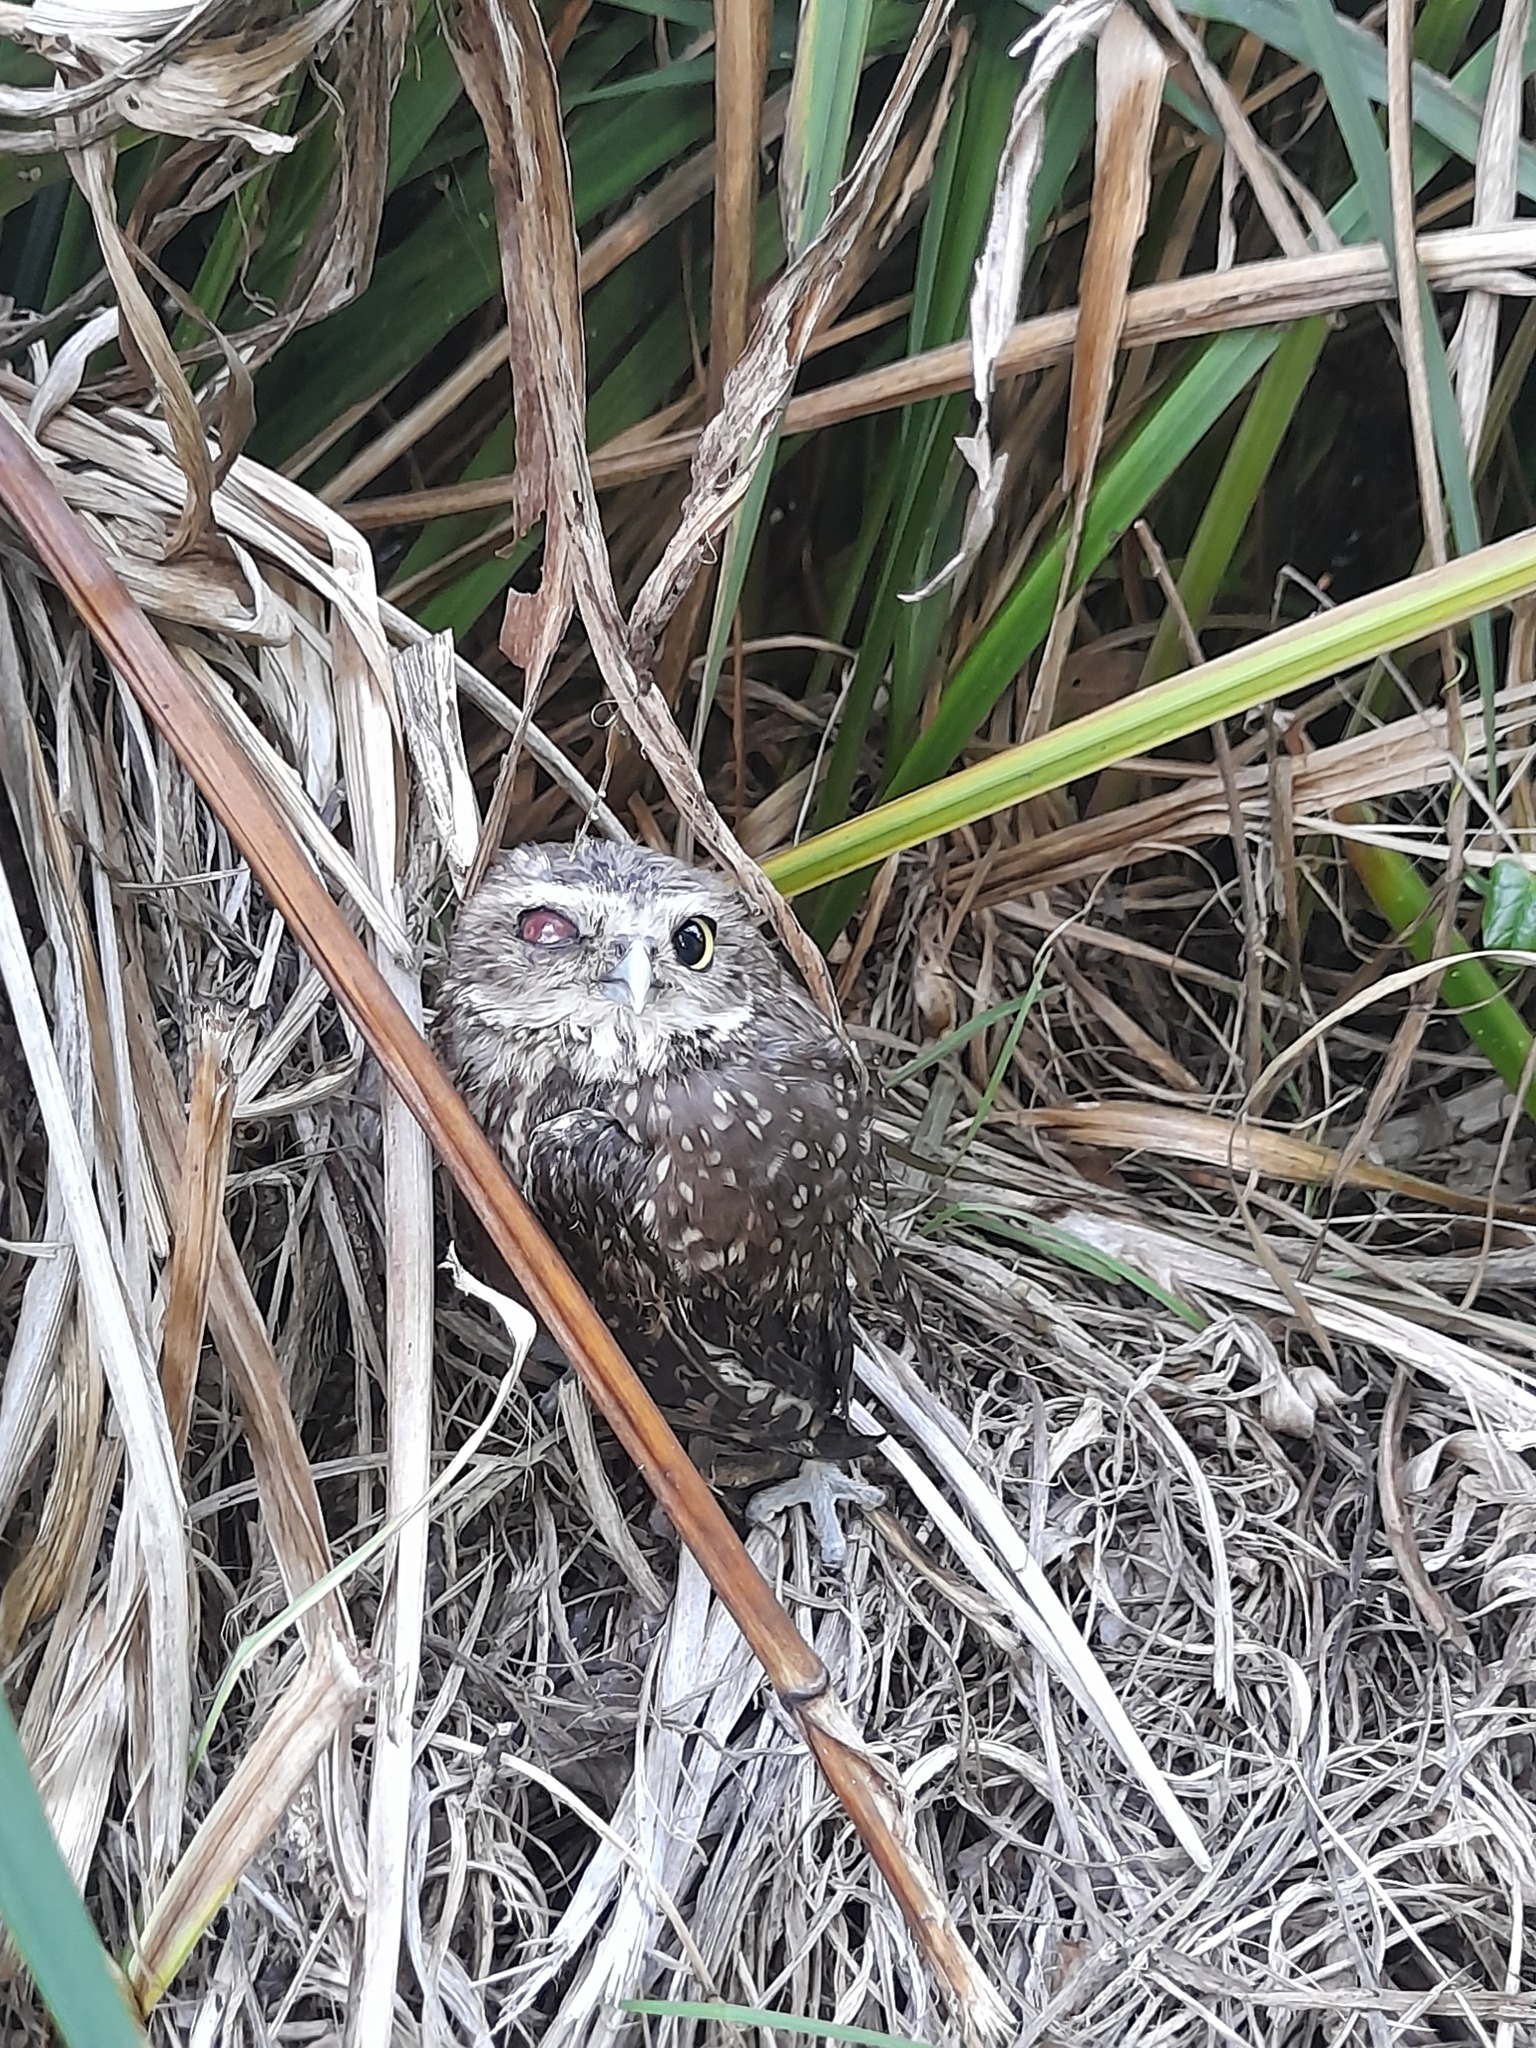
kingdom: Animalia
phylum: Chordata
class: Aves
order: Strigiformes
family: Strigidae
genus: Athene
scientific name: Athene cunicularia
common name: Burrowing owl
